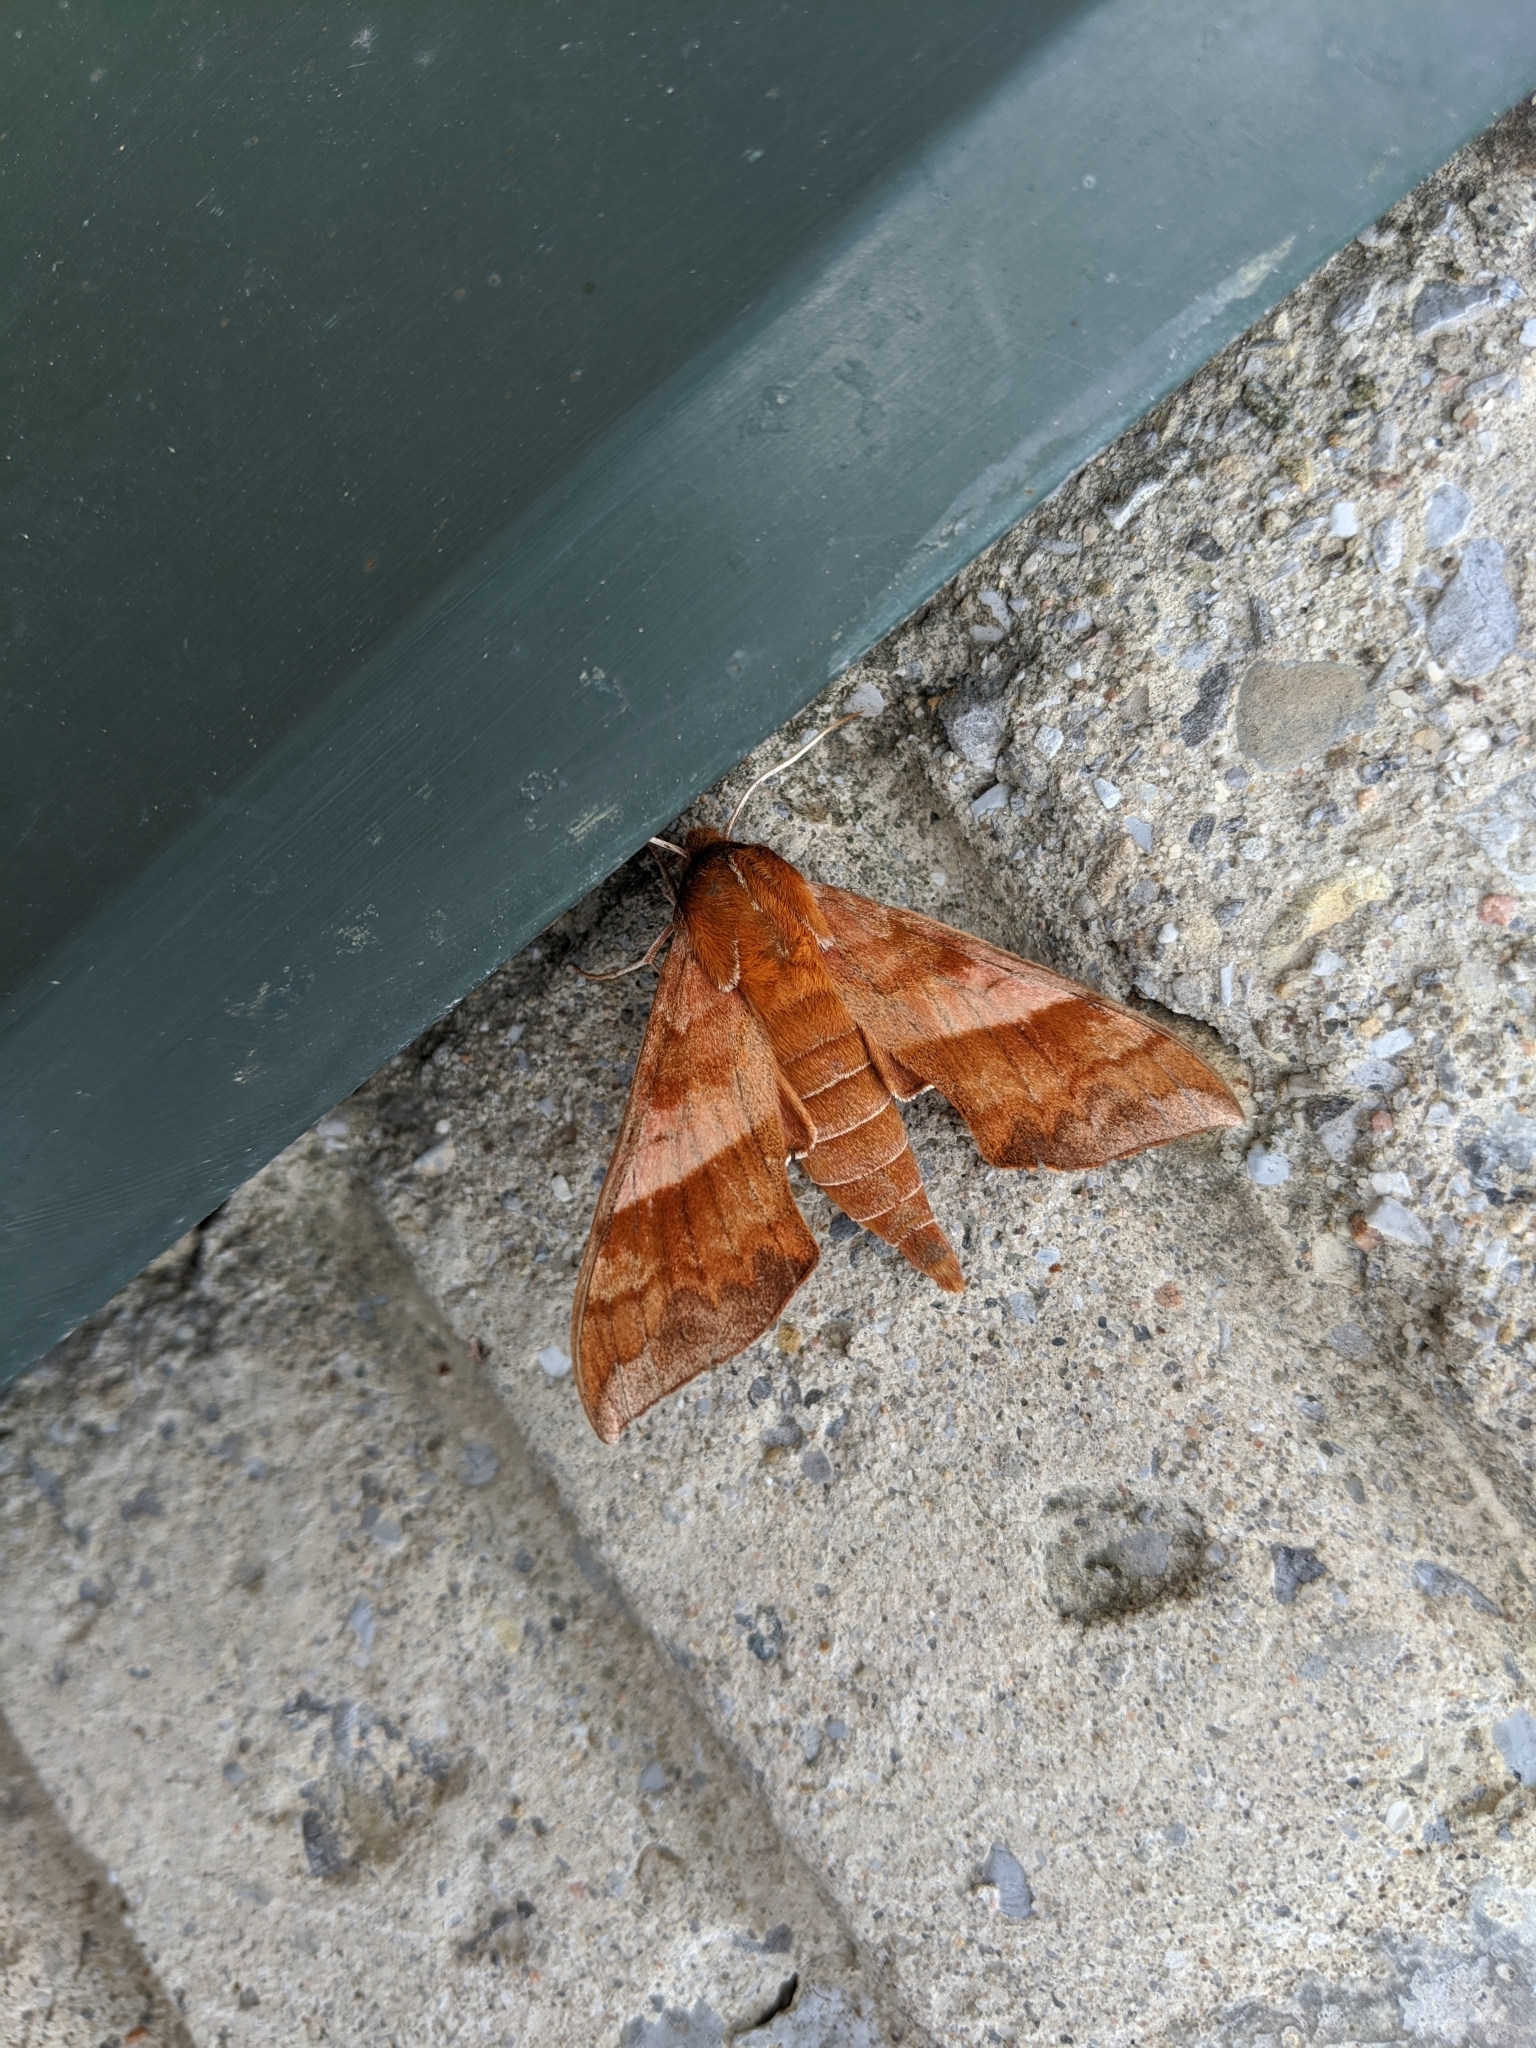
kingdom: Animalia
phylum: Arthropoda
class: Insecta
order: Lepidoptera
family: Sphingidae
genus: Darapsa
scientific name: Darapsa choerilus
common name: Azalea sphinx
